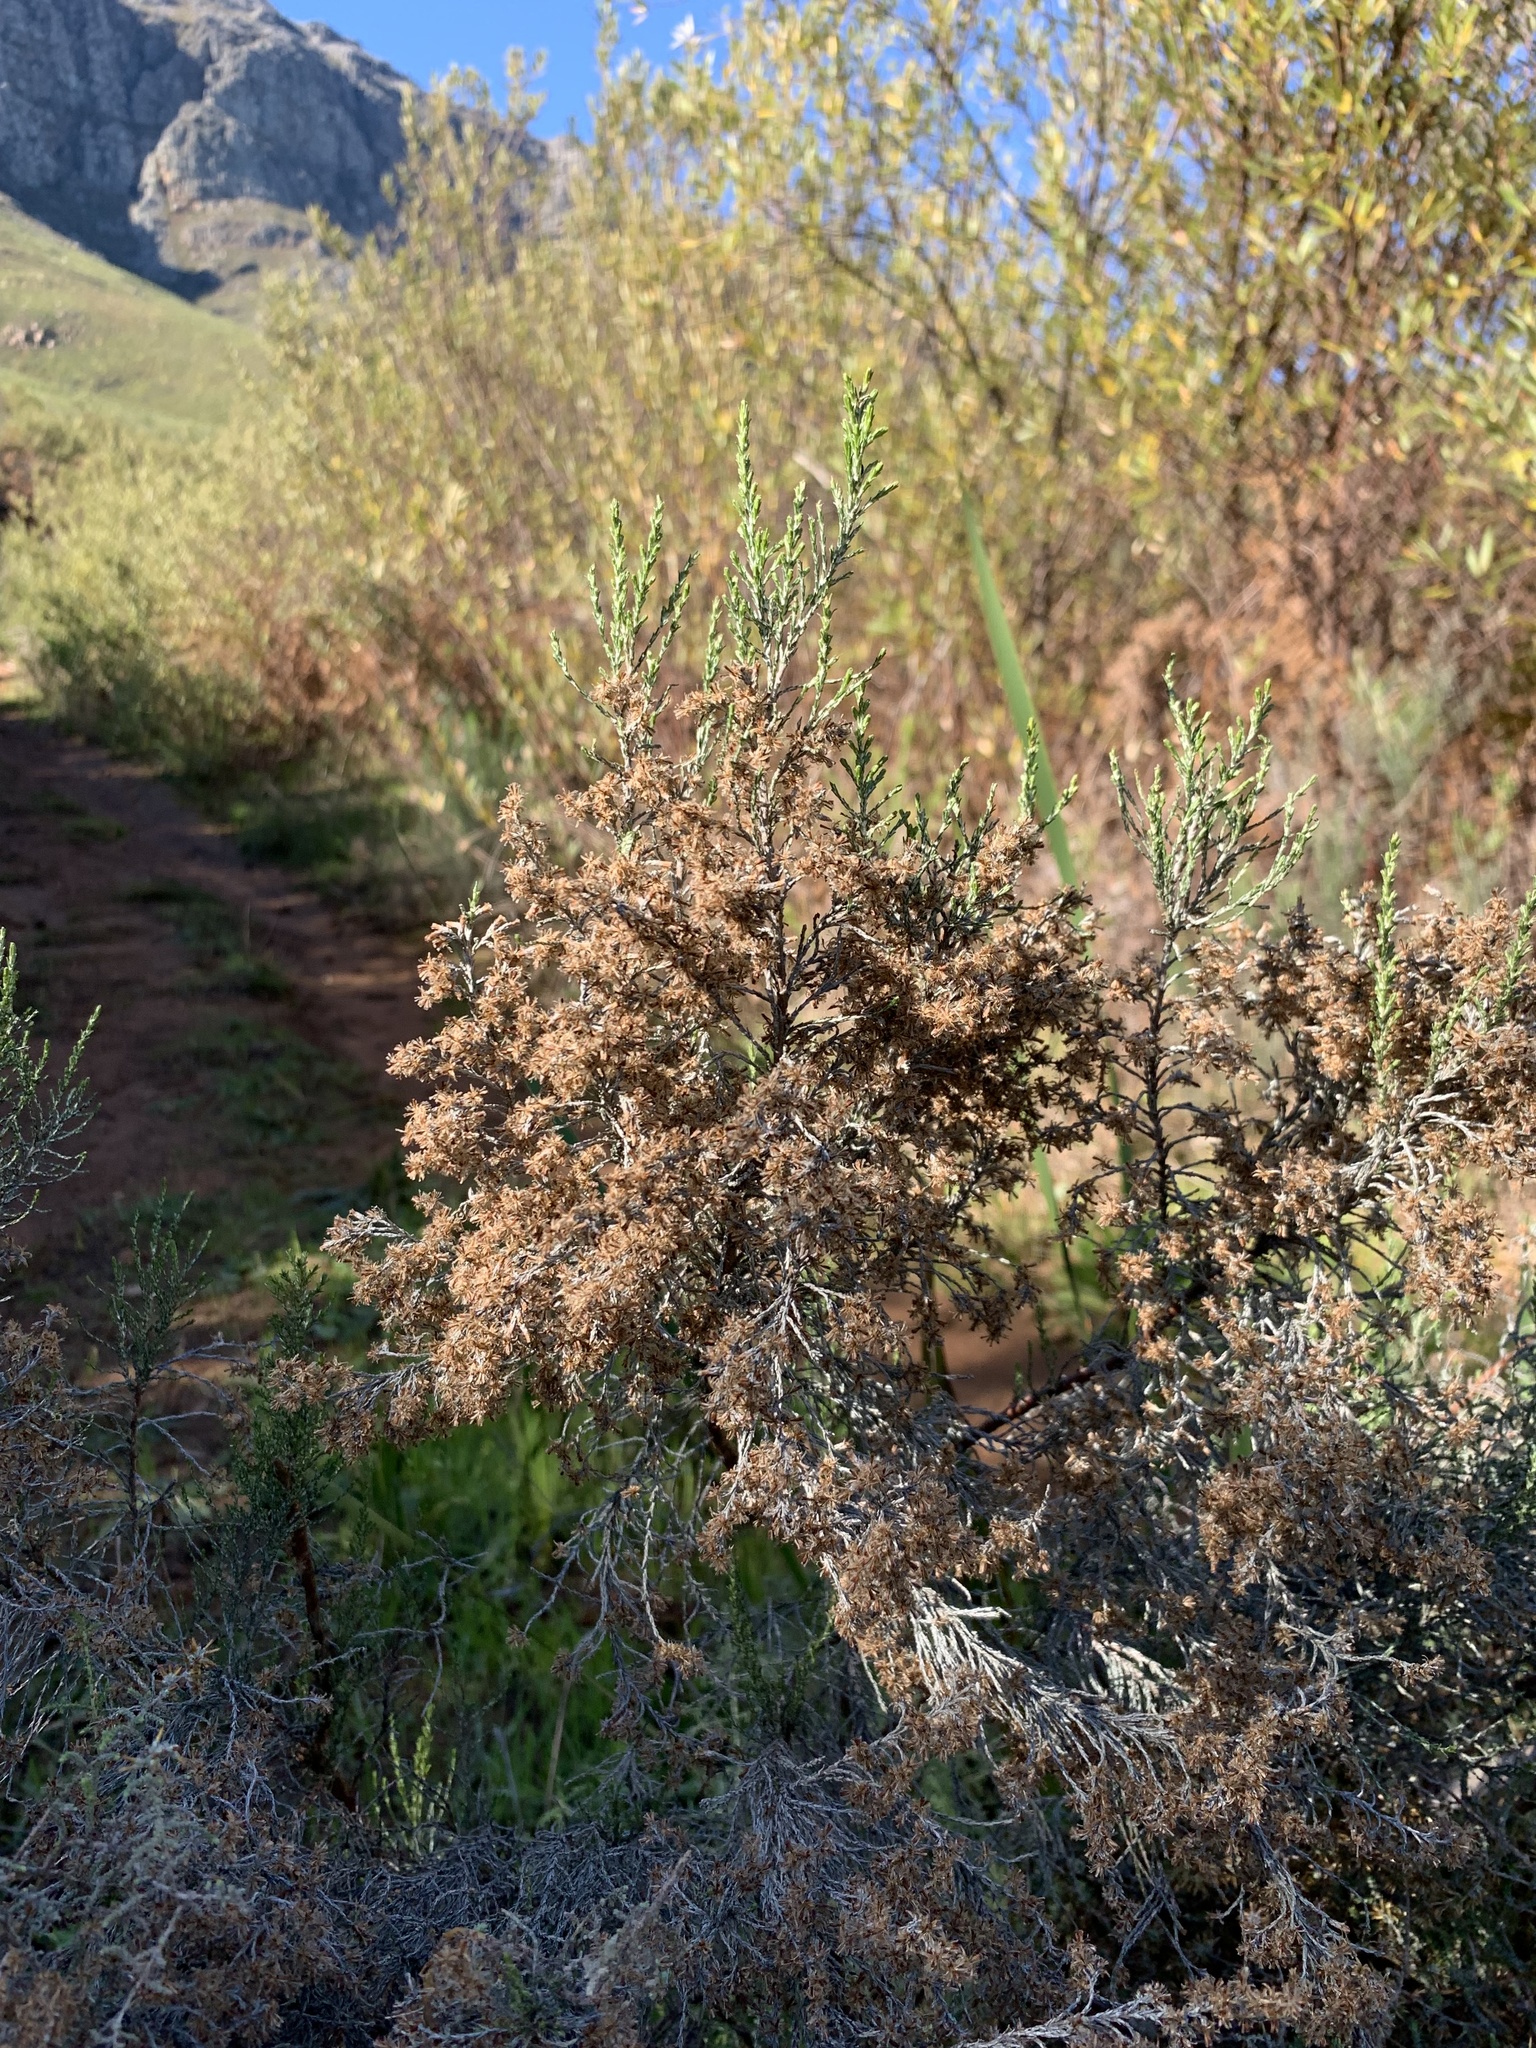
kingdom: Plantae
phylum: Tracheophyta
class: Magnoliopsida
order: Asterales
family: Asteraceae
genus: Dicerothamnus
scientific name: Dicerothamnus rhinocerotis
